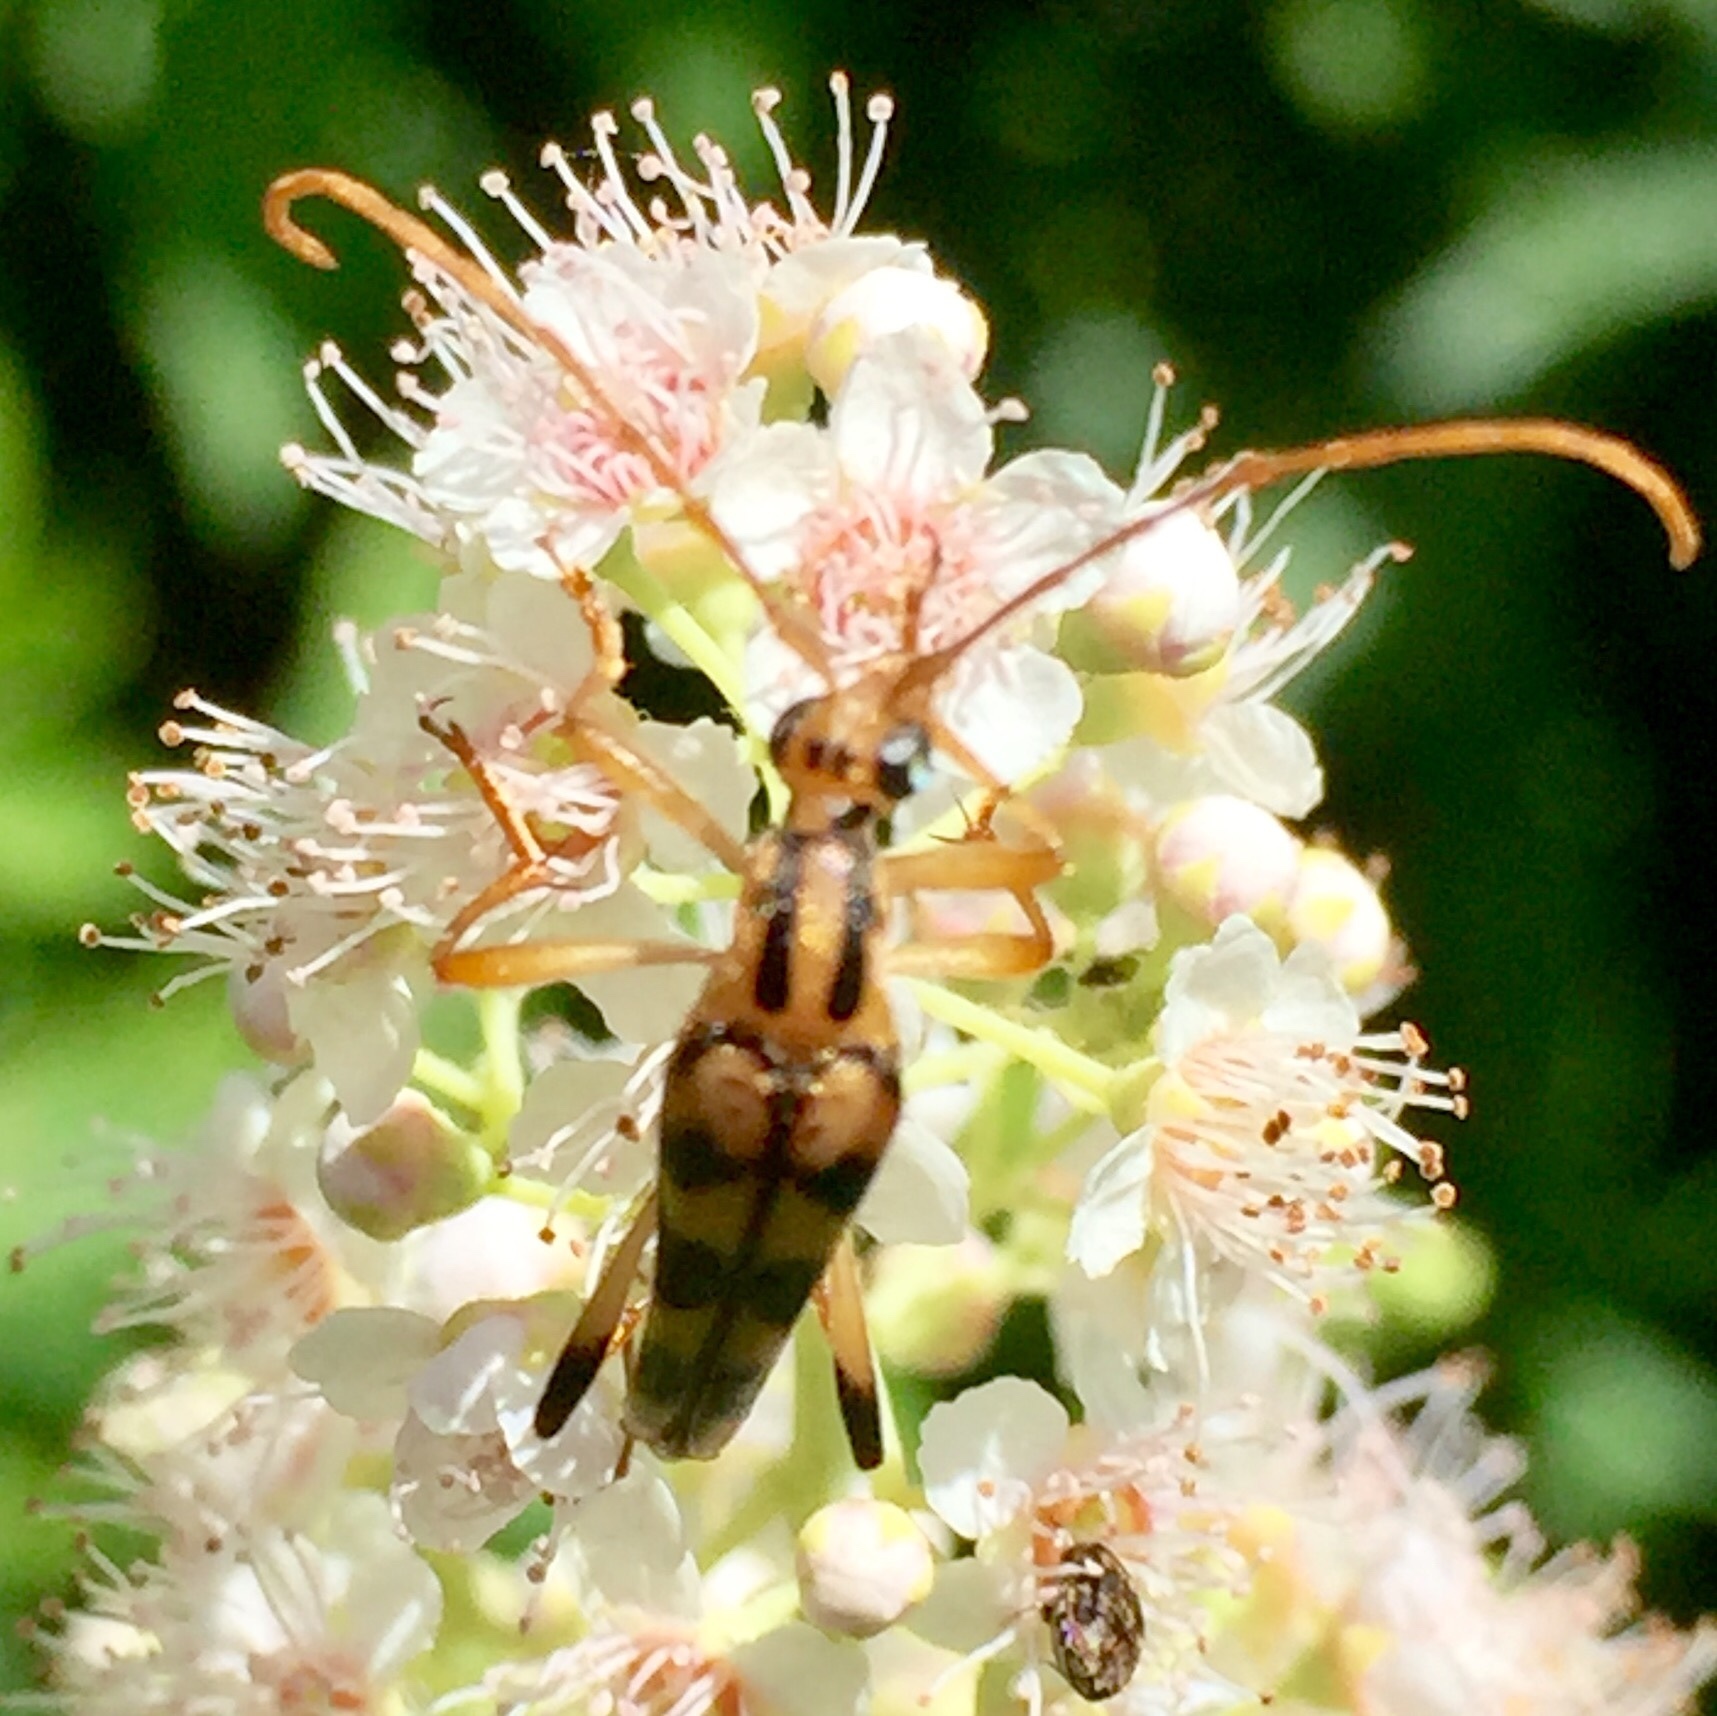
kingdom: Animalia
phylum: Arthropoda
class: Insecta
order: Coleoptera
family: Cerambycidae
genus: Strangalia
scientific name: Strangalia luteicornis
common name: Yellow-horned flower longhorn beetle
